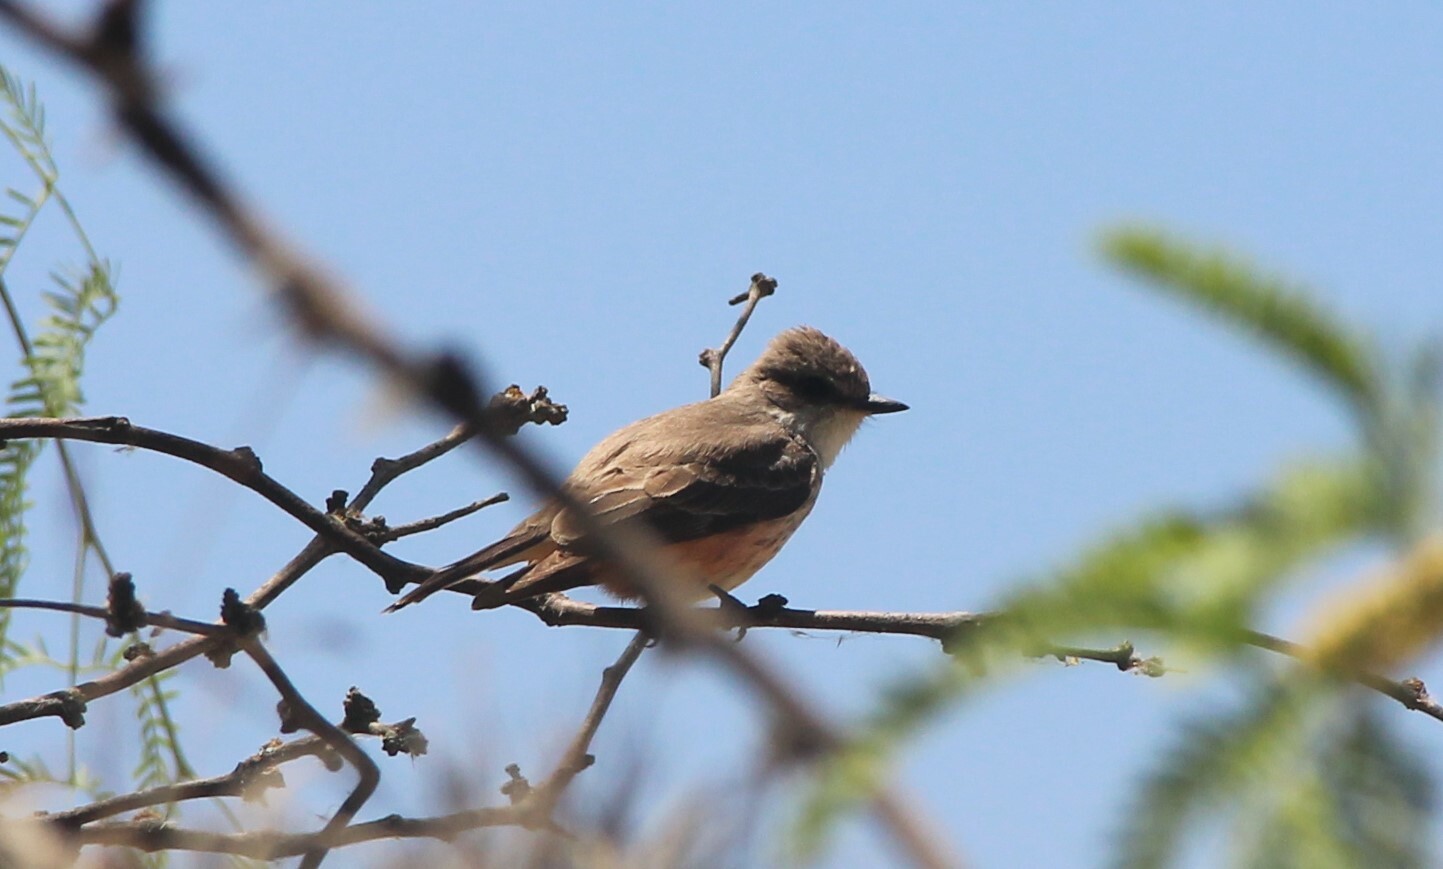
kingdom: Animalia
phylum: Chordata
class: Aves
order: Passeriformes
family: Tyrannidae
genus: Pyrocephalus
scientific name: Pyrocephalus rubinus
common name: Vermilion flycatcher
